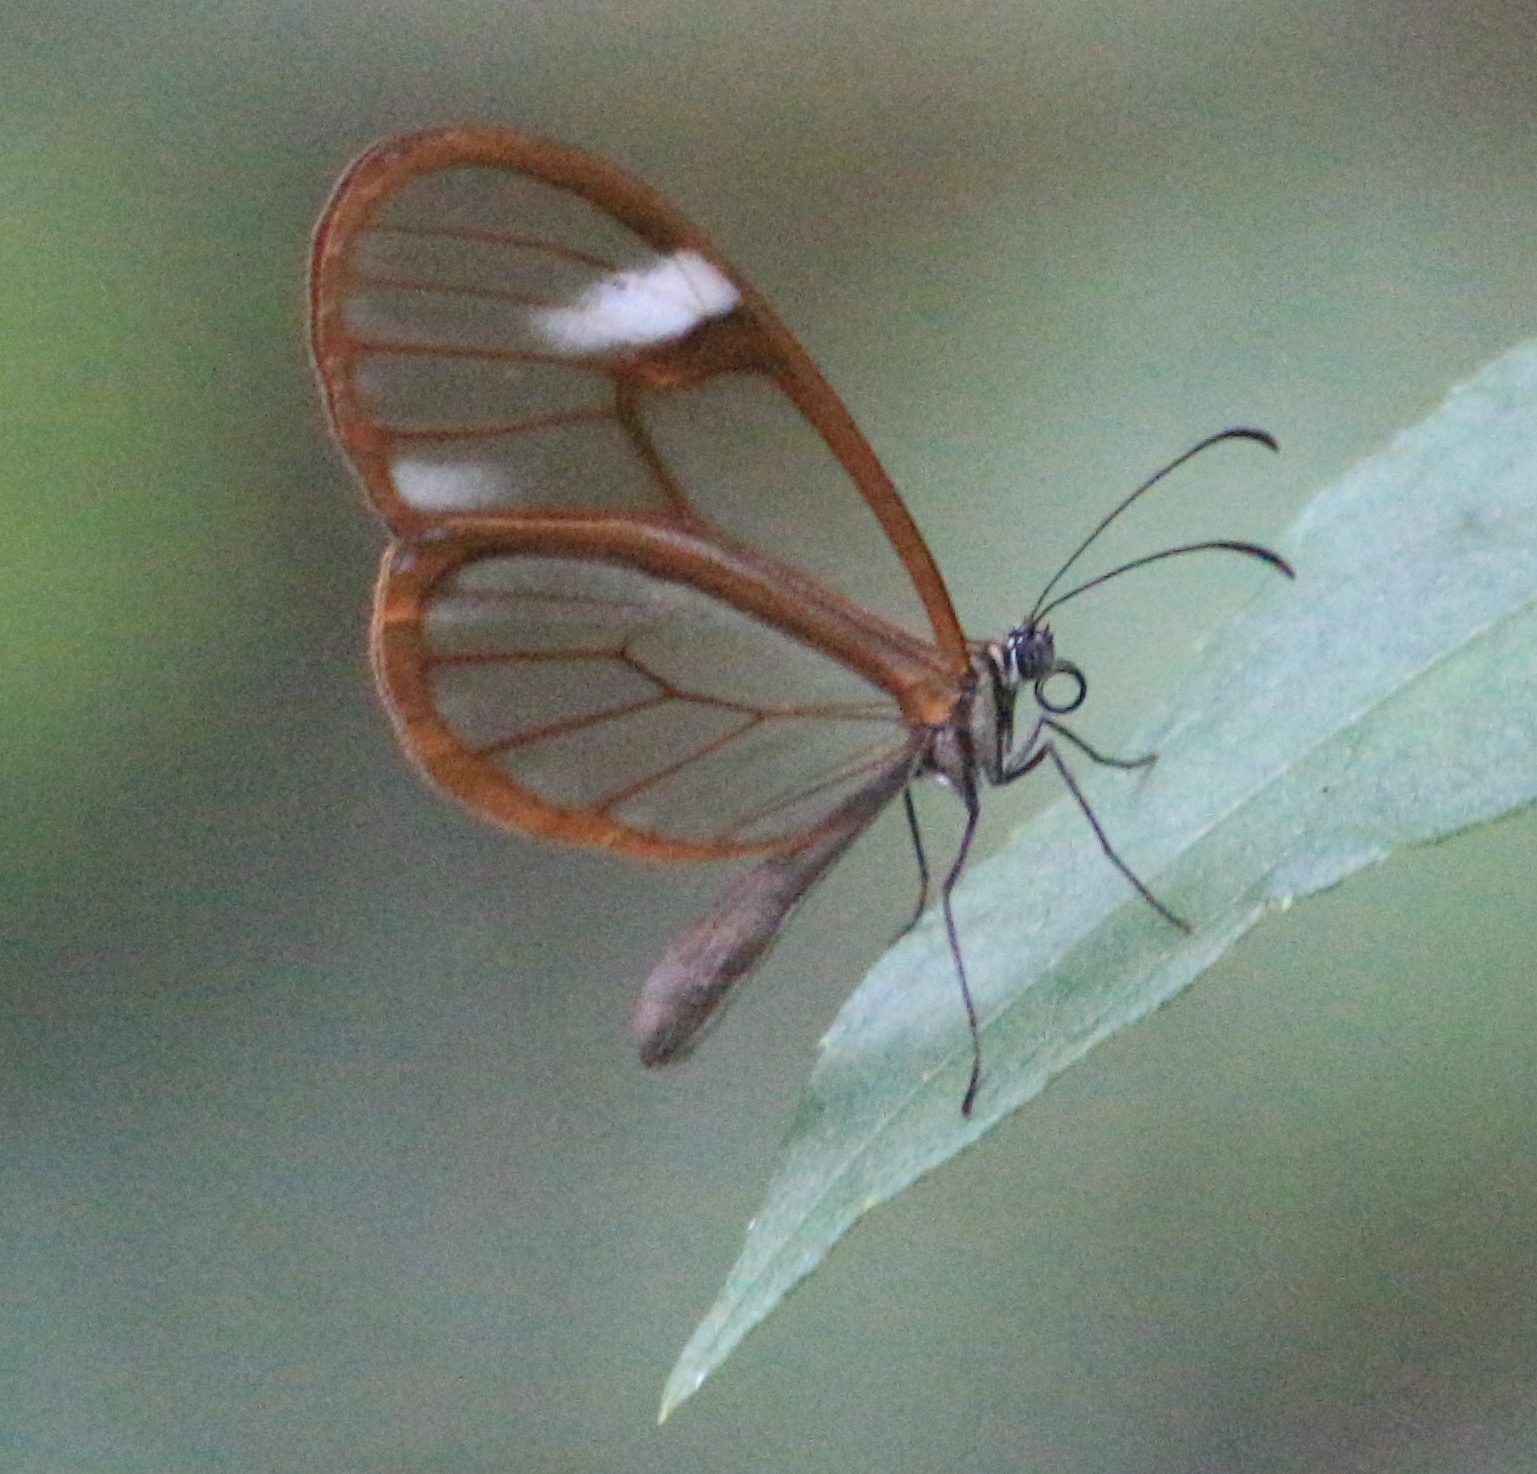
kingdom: Animalia
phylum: Arthropoda
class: Insecta
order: Lepidoptera
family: Nymphalidae
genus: Episcada
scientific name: Episcada salvinia
